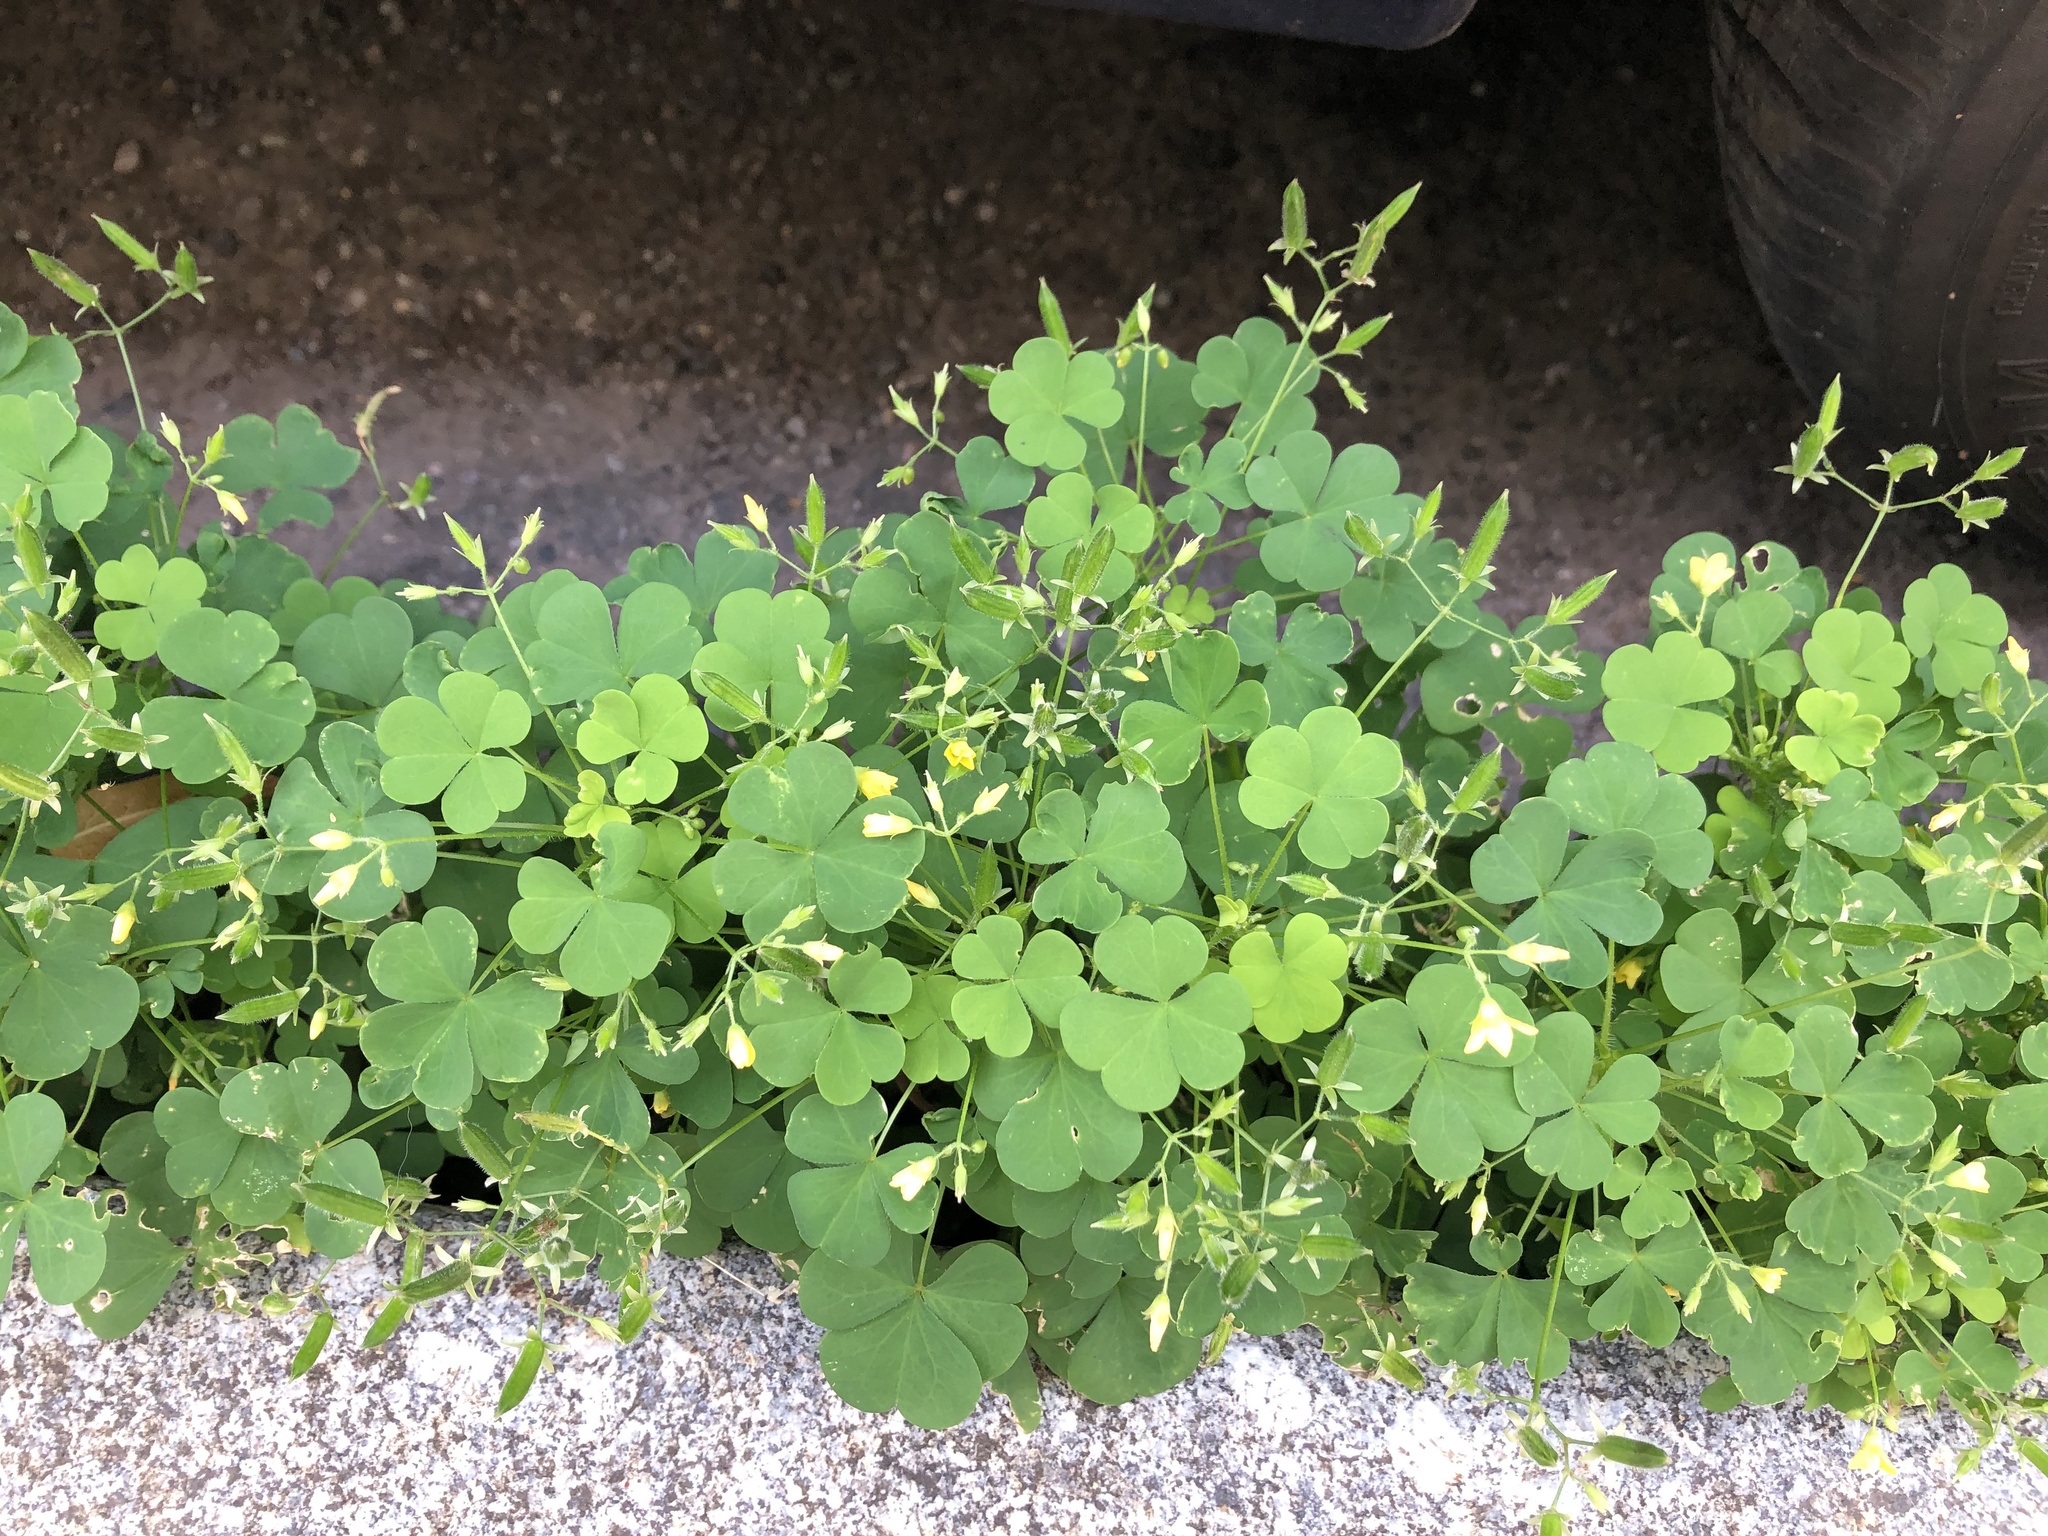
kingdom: Plantae
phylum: Tracheophyta
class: Magnoliopsida
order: Oxalidales
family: Oxalidaceae
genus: Oxalis
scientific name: Oxalis stricta
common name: Upright yellow-sorrel
